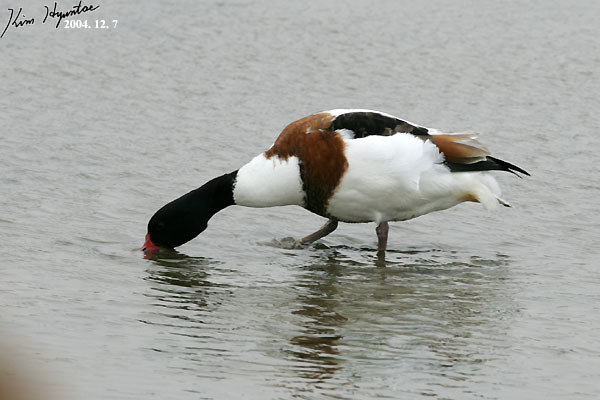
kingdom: Animalia
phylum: Chordata
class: Aves
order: Anseriformes
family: Anatidae
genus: Tadorna
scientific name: Tadorna tadorna
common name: Common shelduck
